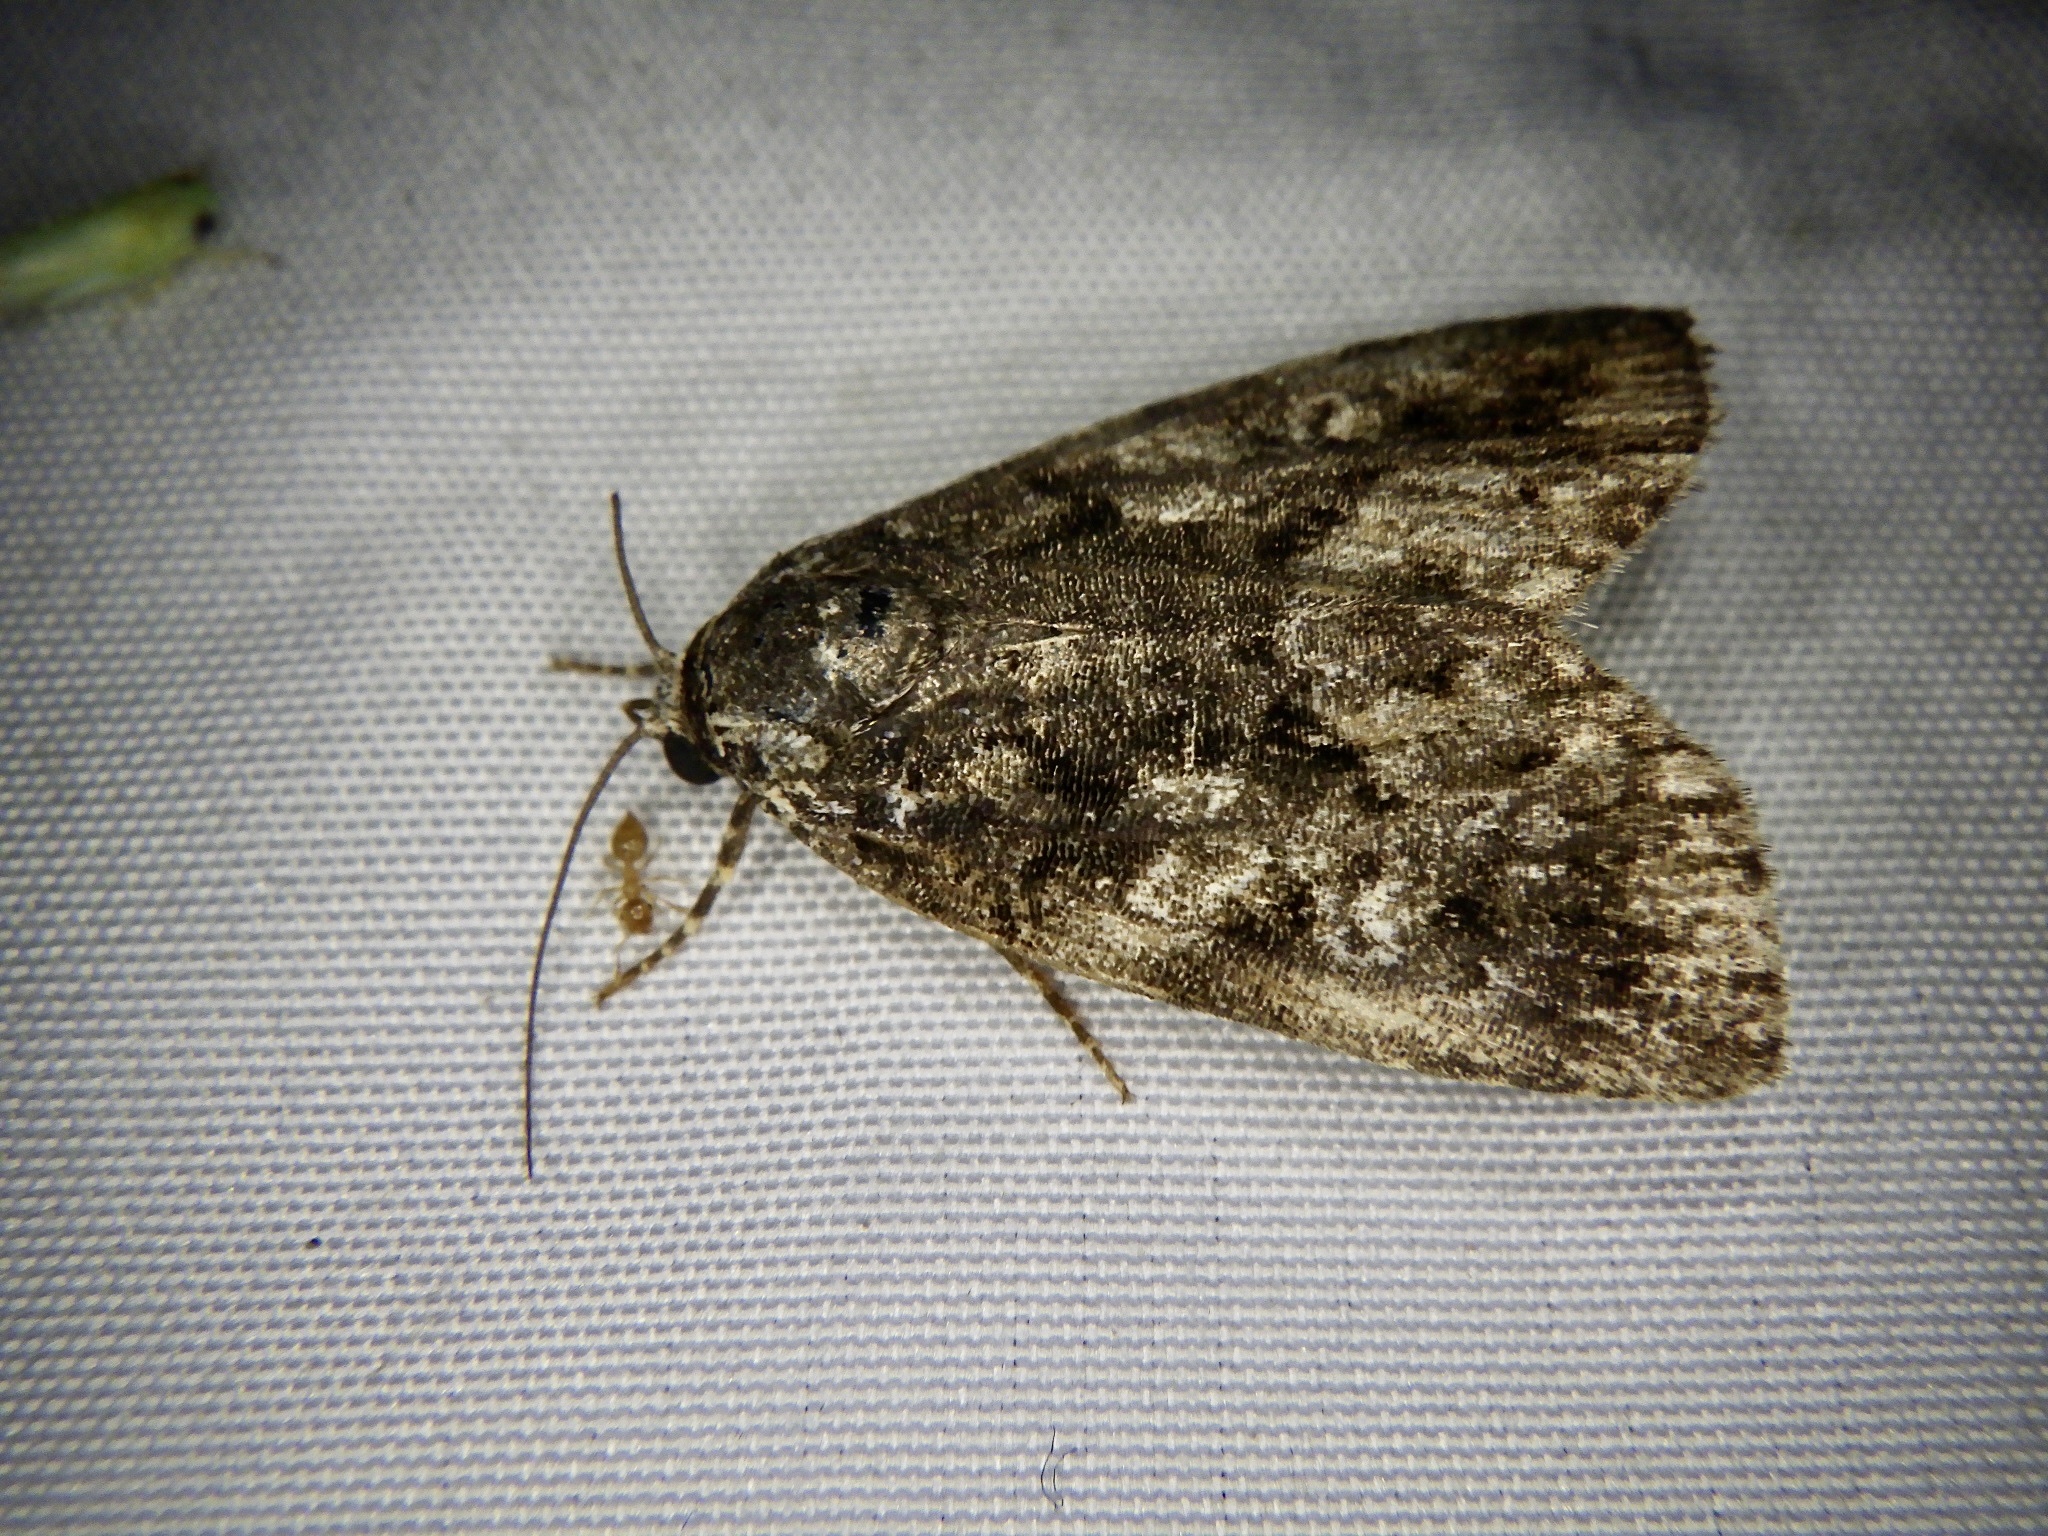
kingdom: Animalia
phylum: Arthropoda
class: Insecta
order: Lepidoptera
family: Noctuidae
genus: Gerbathodes
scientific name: Gerbathodes lichenodes
